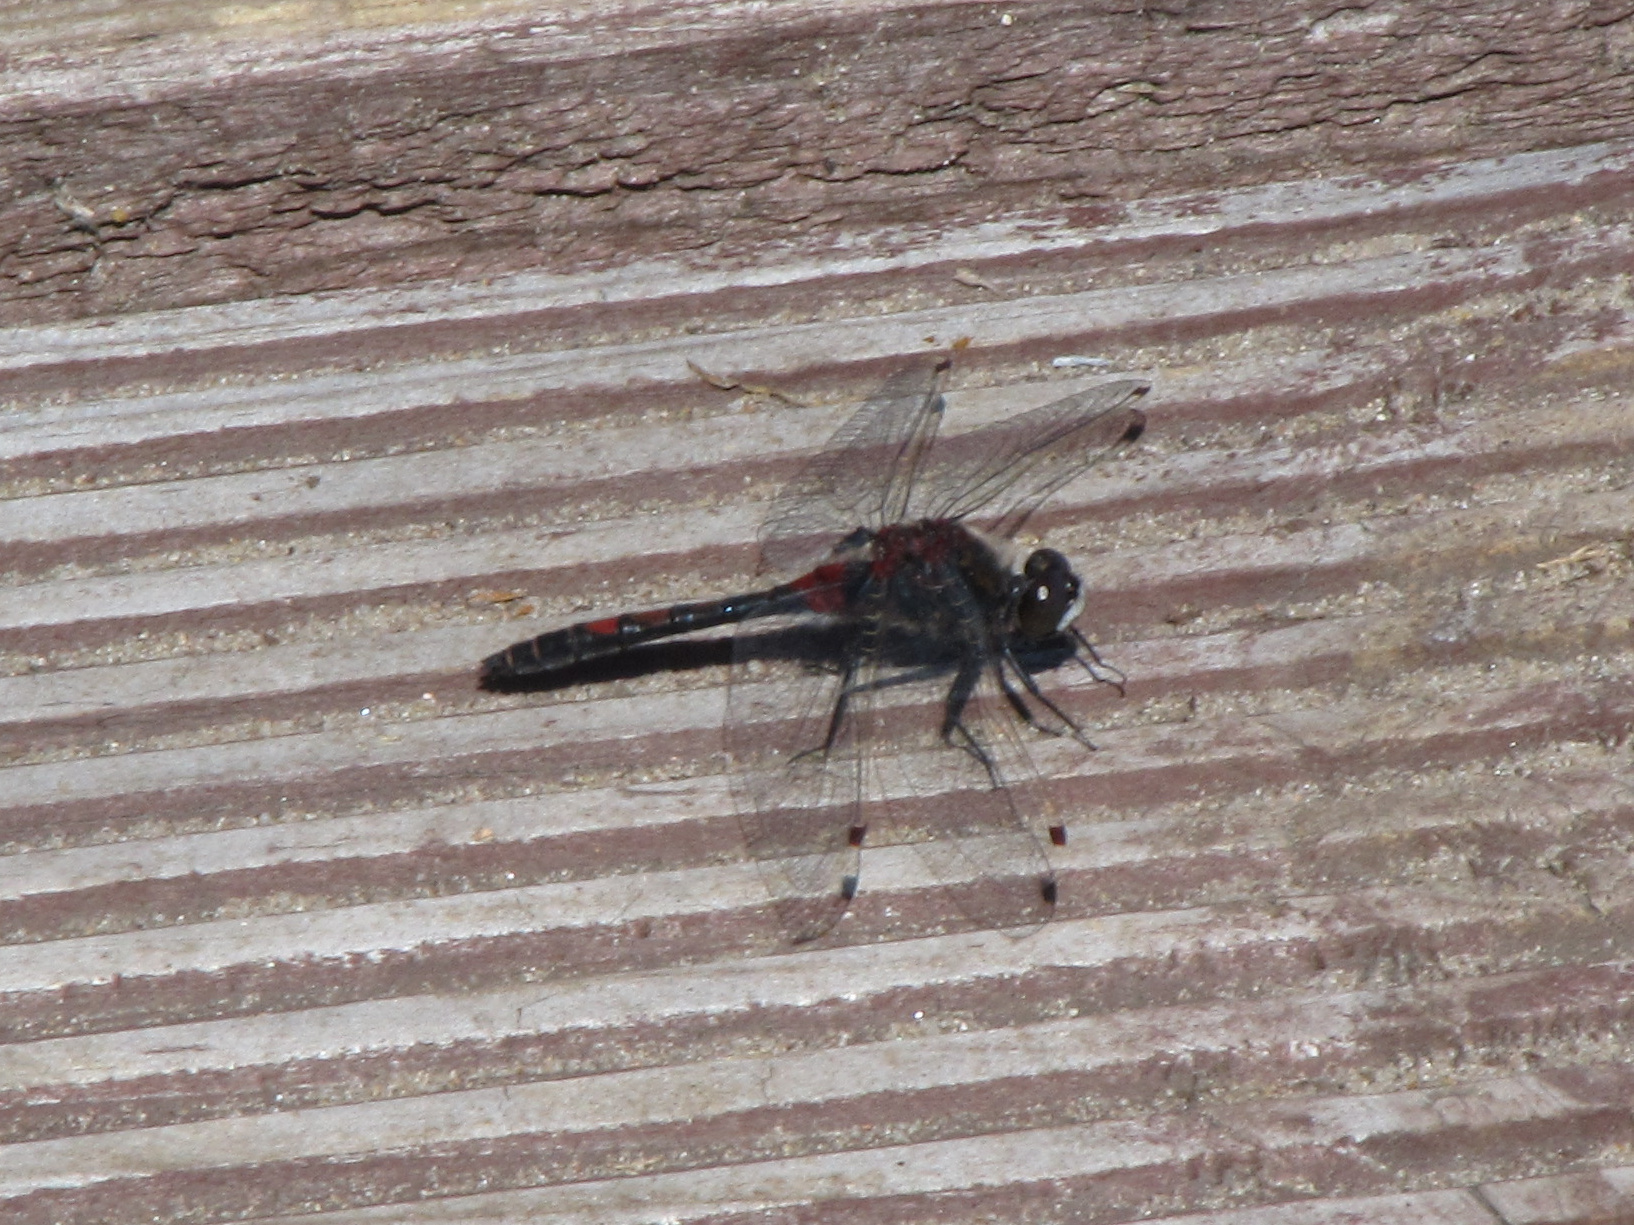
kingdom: Animalia
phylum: Arthropoda
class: Insecta
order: Odonata
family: Libellulidae
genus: Leucorrhinia
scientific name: Leucorrhinia dubia
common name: White-faced darter
